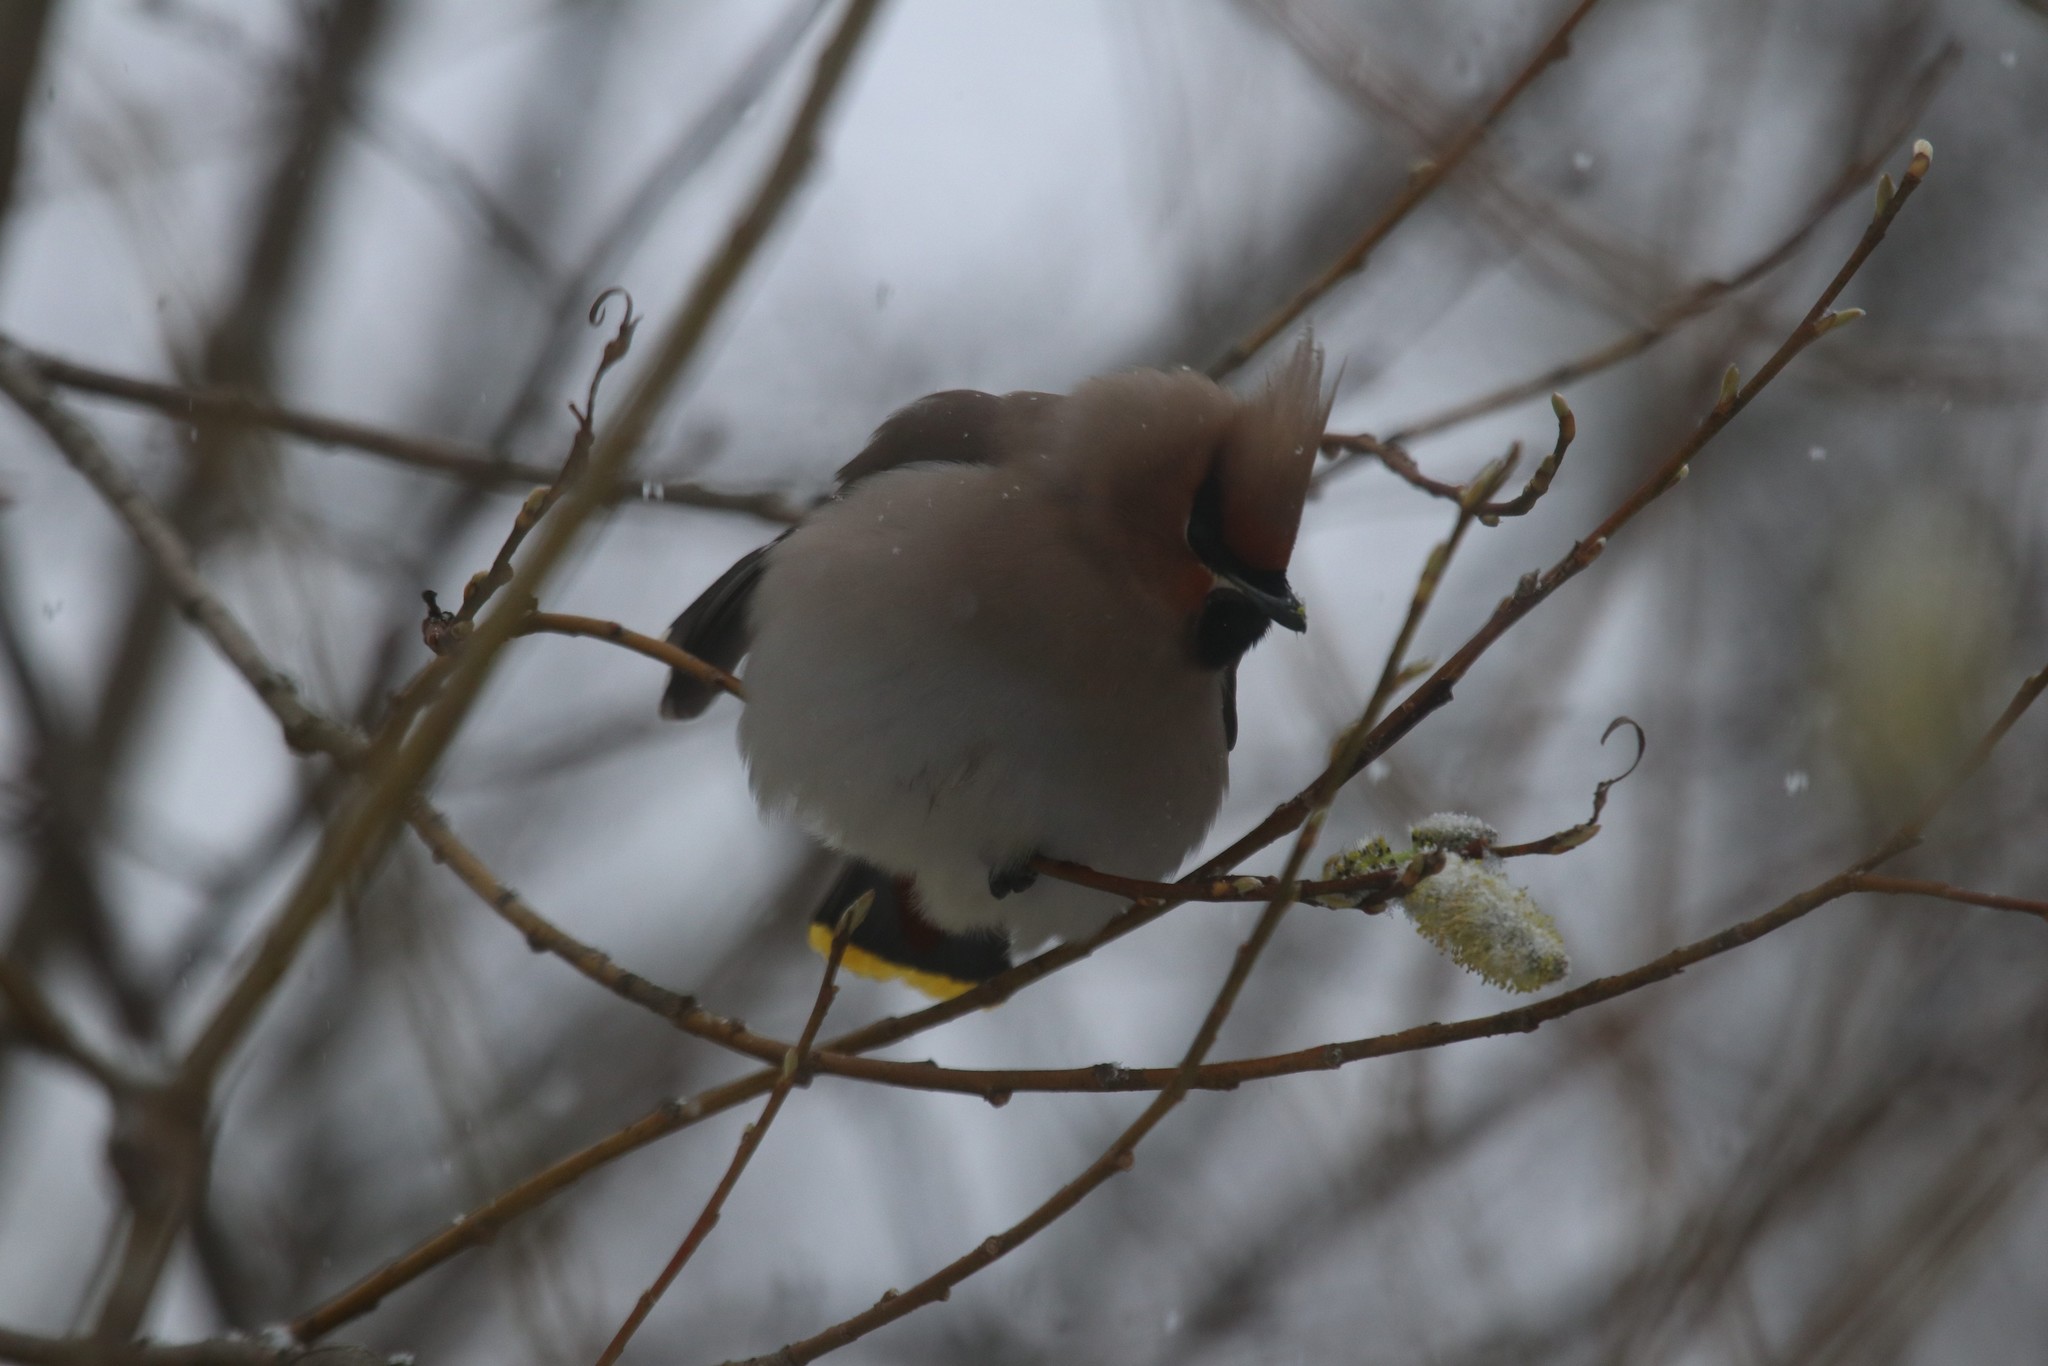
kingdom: Animalia
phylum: Chordata
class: Aves
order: Passeriformes
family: Bombycillidae
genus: Bombycilla
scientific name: Bombycilla garrulus
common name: Bohemian waxwing
